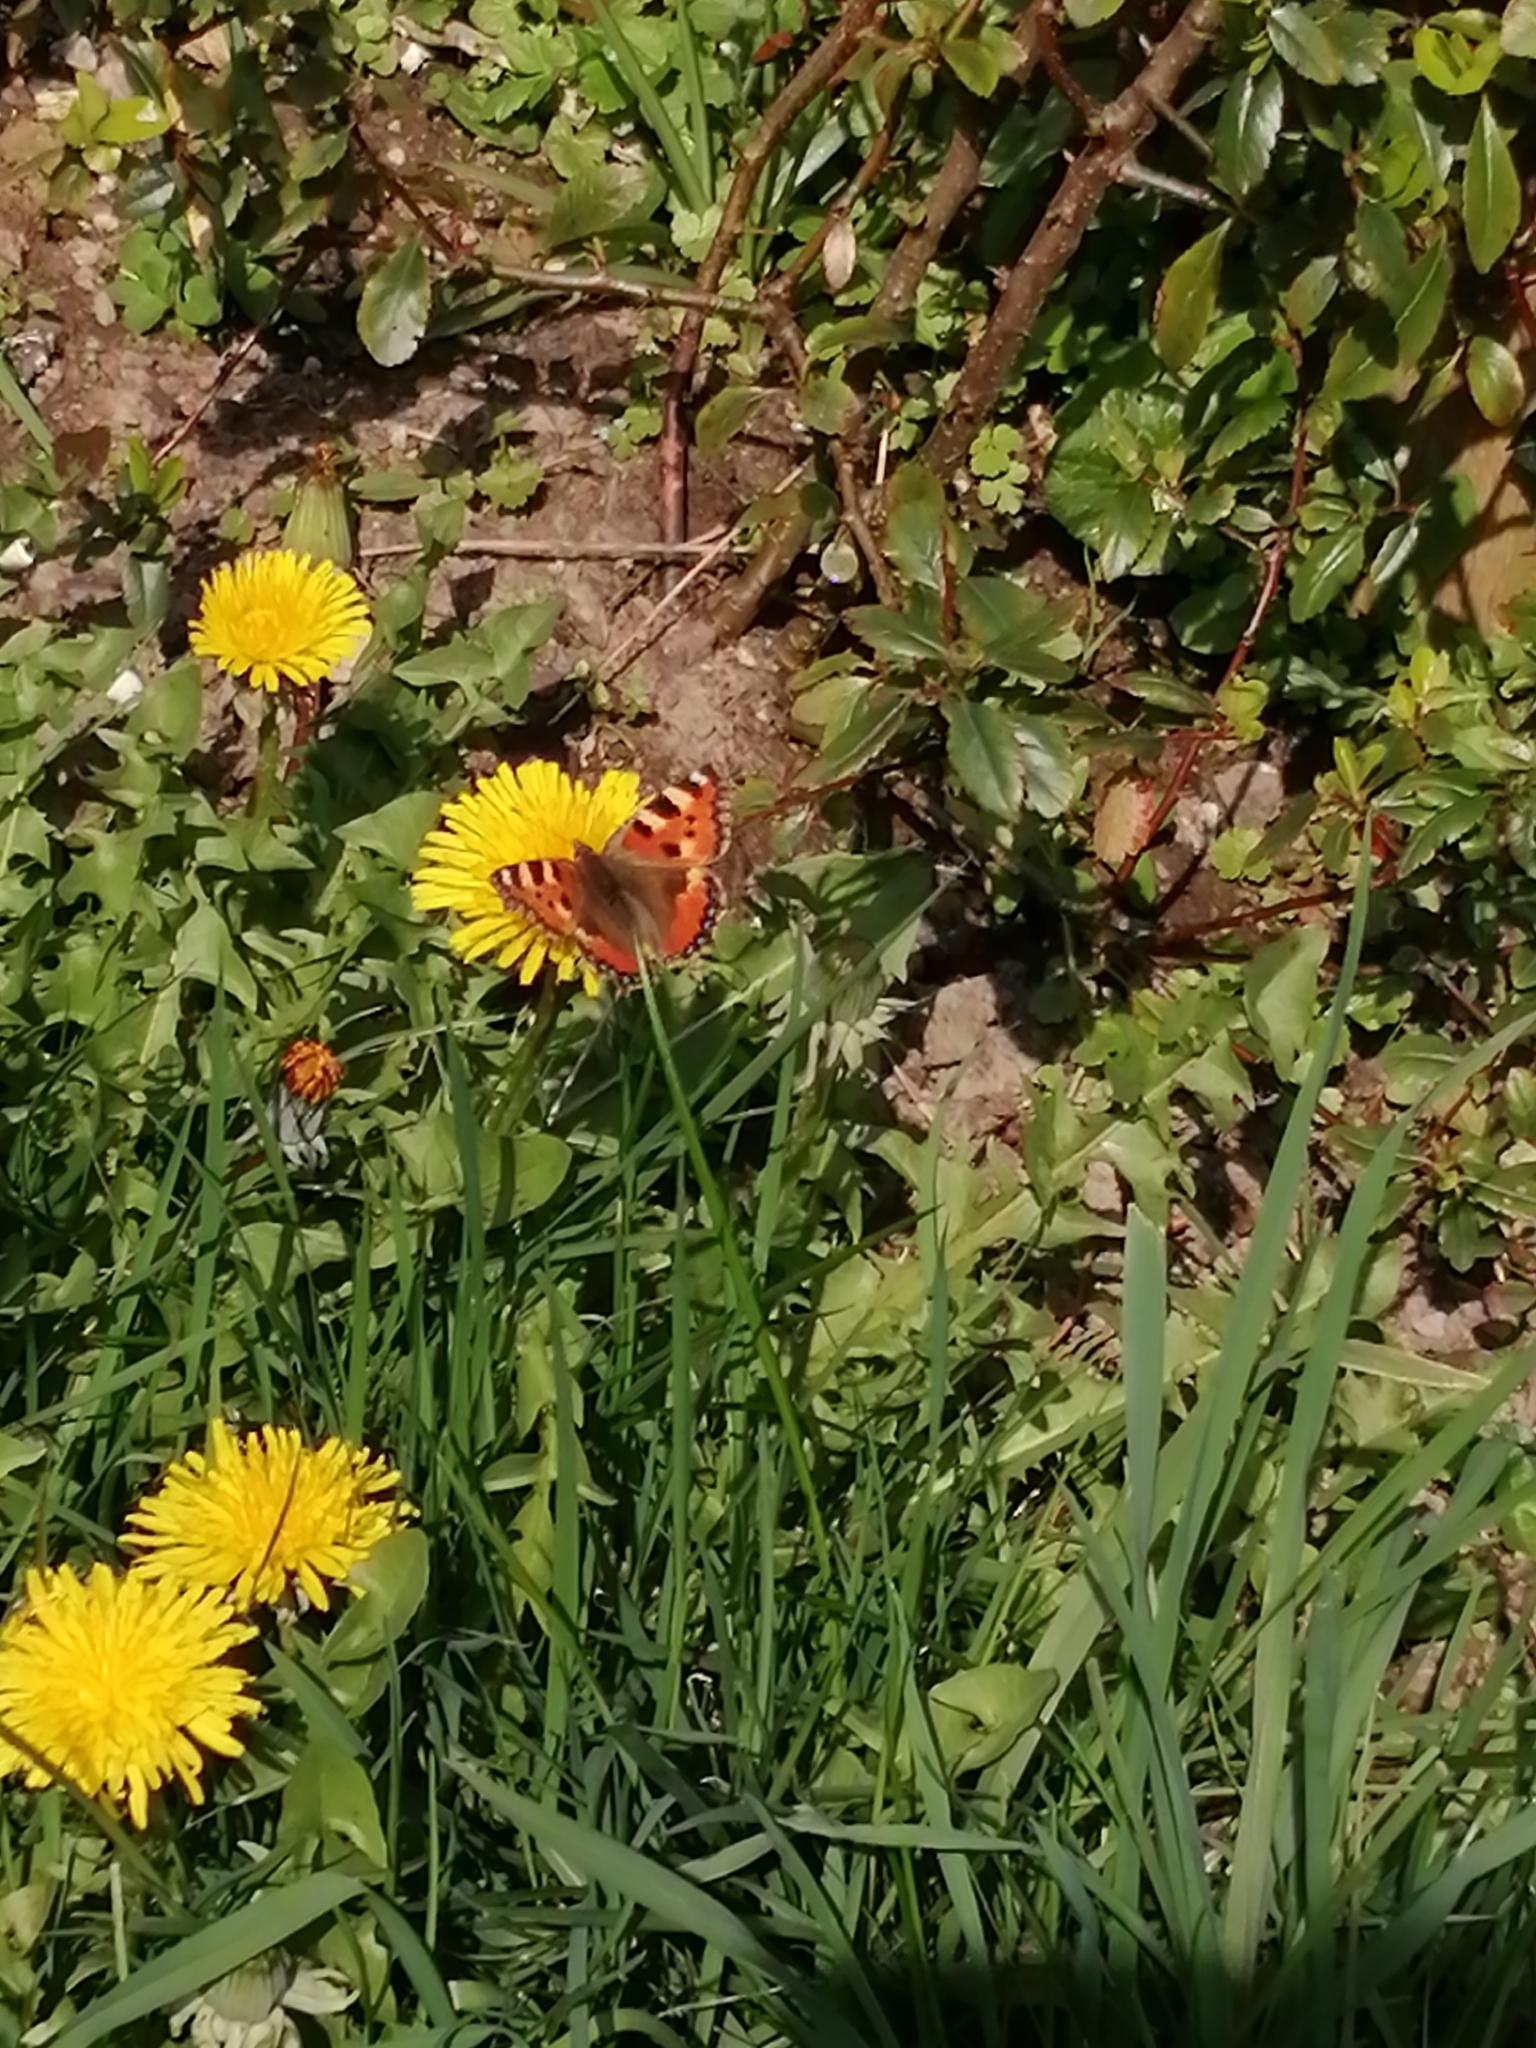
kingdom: Animalia
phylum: Arthropoda
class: Insecta
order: Lepidoptera
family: Nymphalidae
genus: Aglais
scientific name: Aglais urticae
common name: Small tortoiseshell
